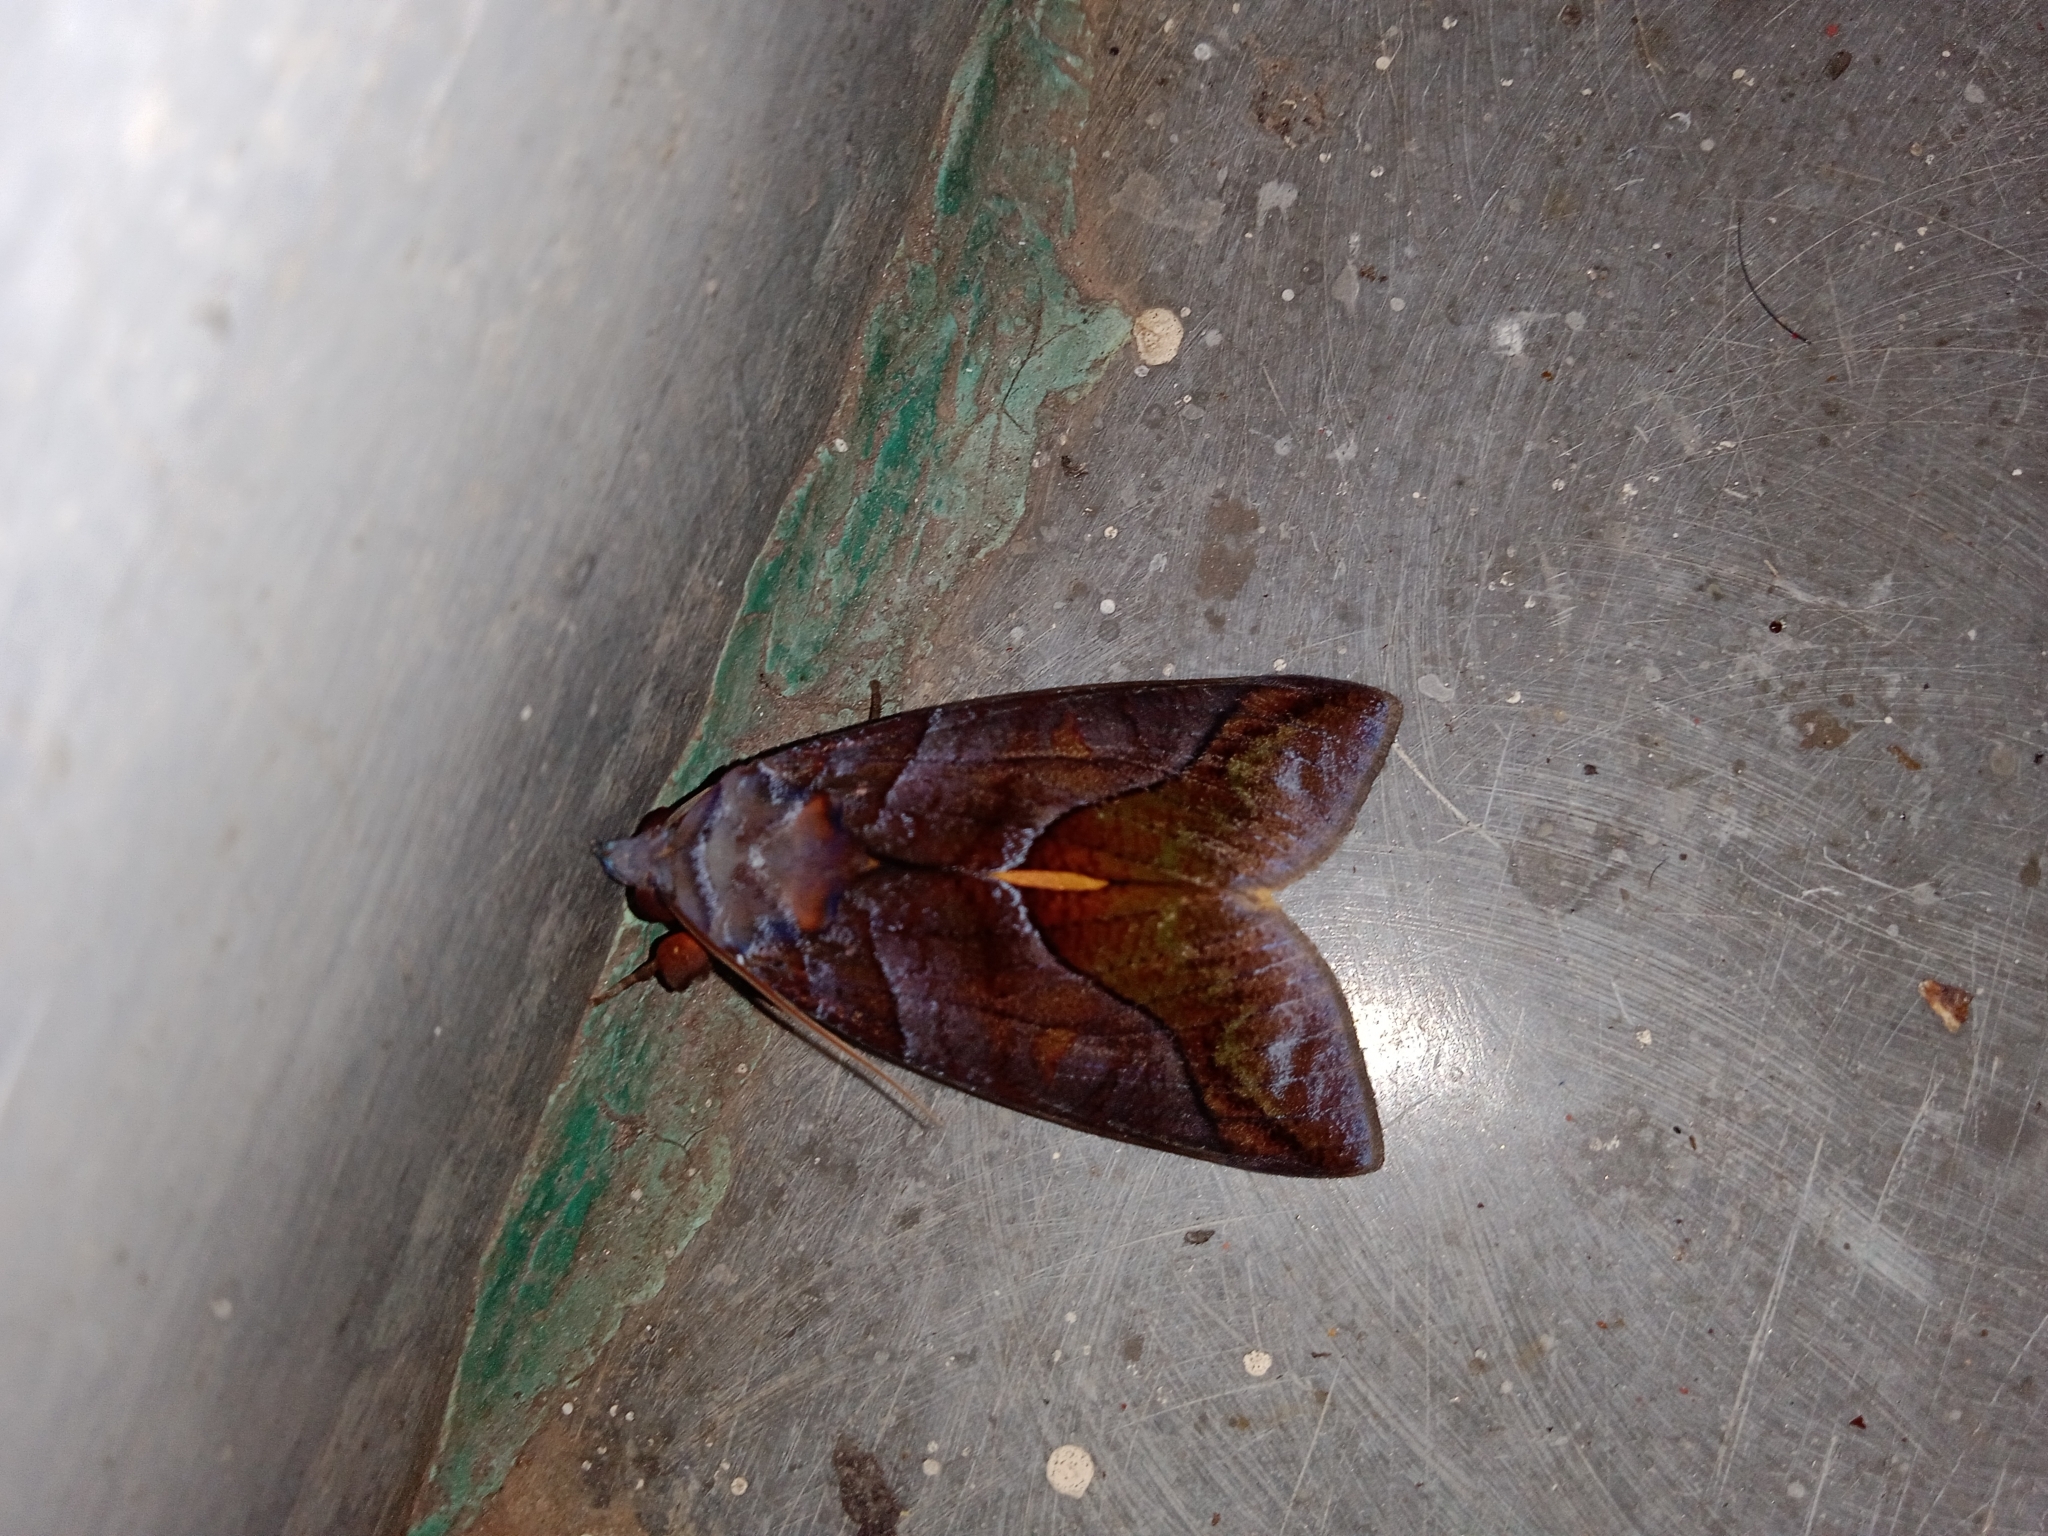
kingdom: Animalia
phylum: Arthropoda
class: Insecta
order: Lepidoptera
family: Erebidae
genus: Eudocima
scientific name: Eudocima homaena
